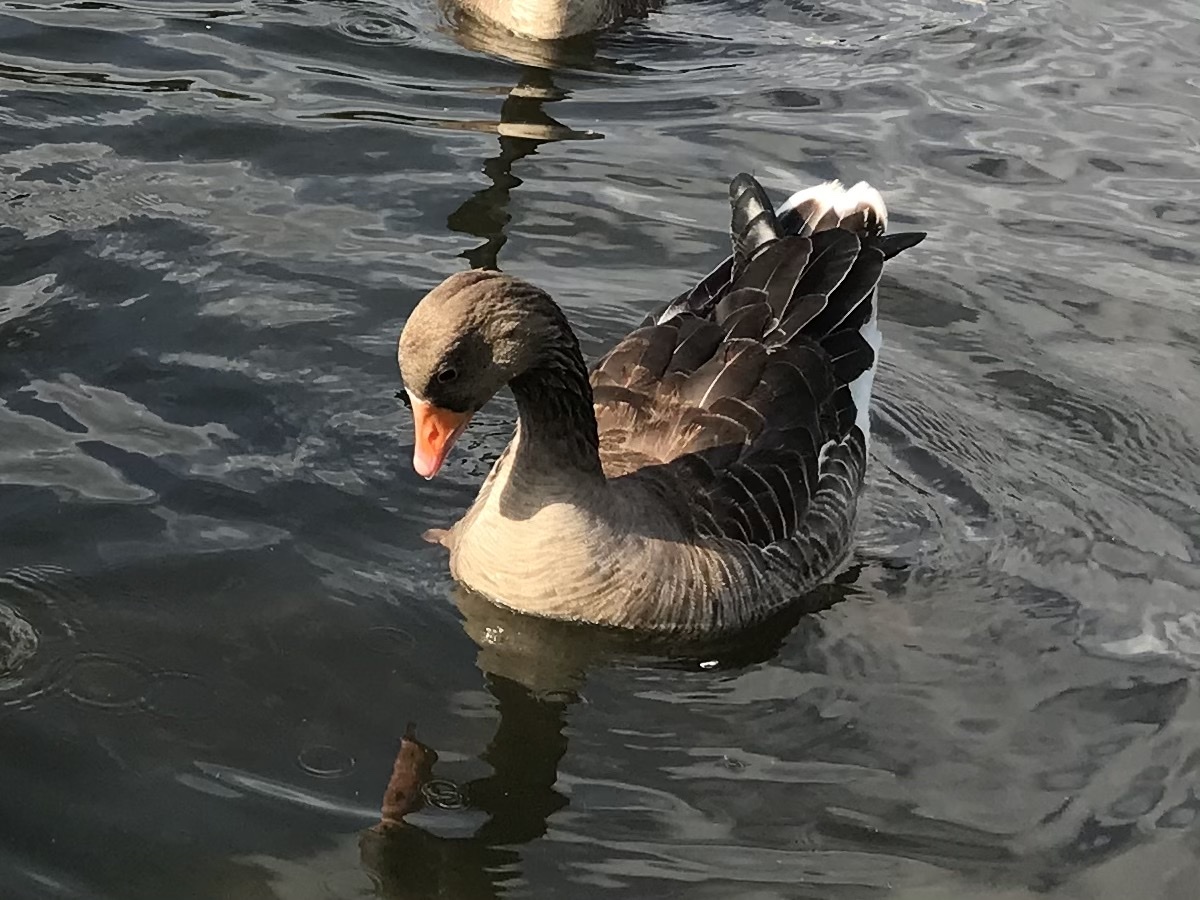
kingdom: Animalia
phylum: Chordata
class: Aves
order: Anseriformes
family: Anatidae
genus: Anser
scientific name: Anser anser
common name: Greylag goose
